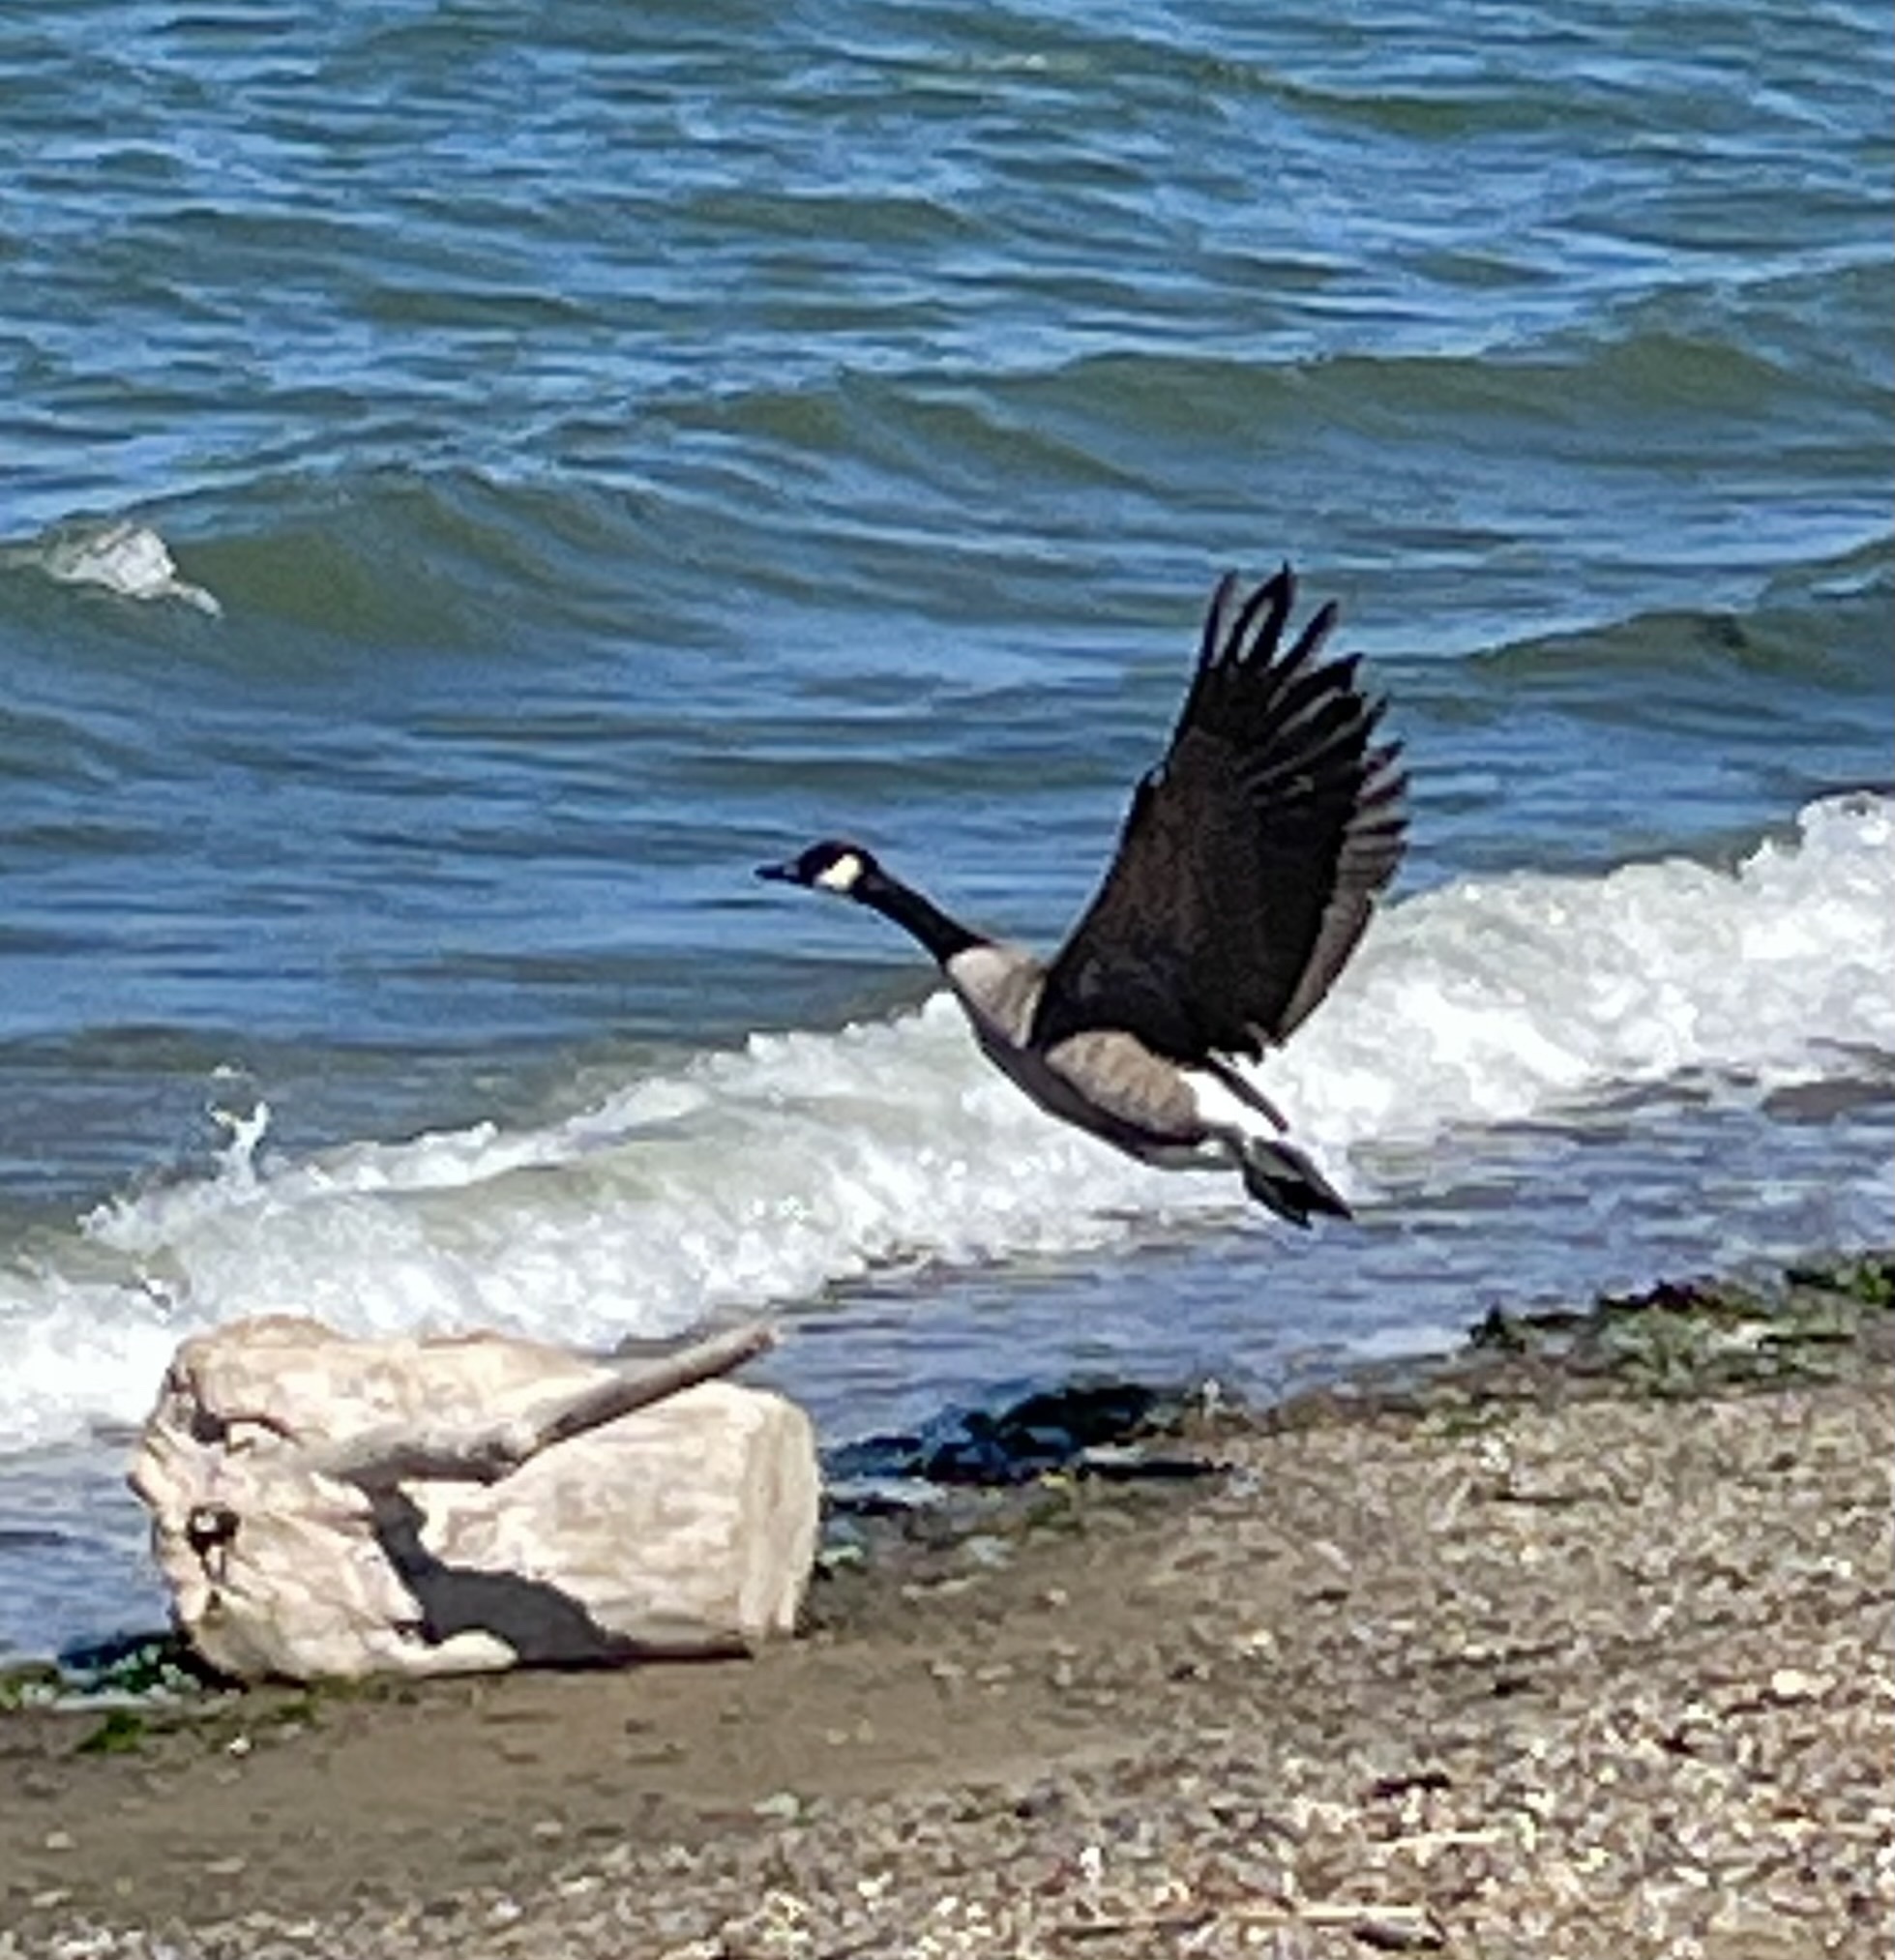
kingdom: Animalia
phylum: Chordata
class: Aves
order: Anseriformes
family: Anatidae
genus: Branta
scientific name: Branta canadensis
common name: Canada goose
